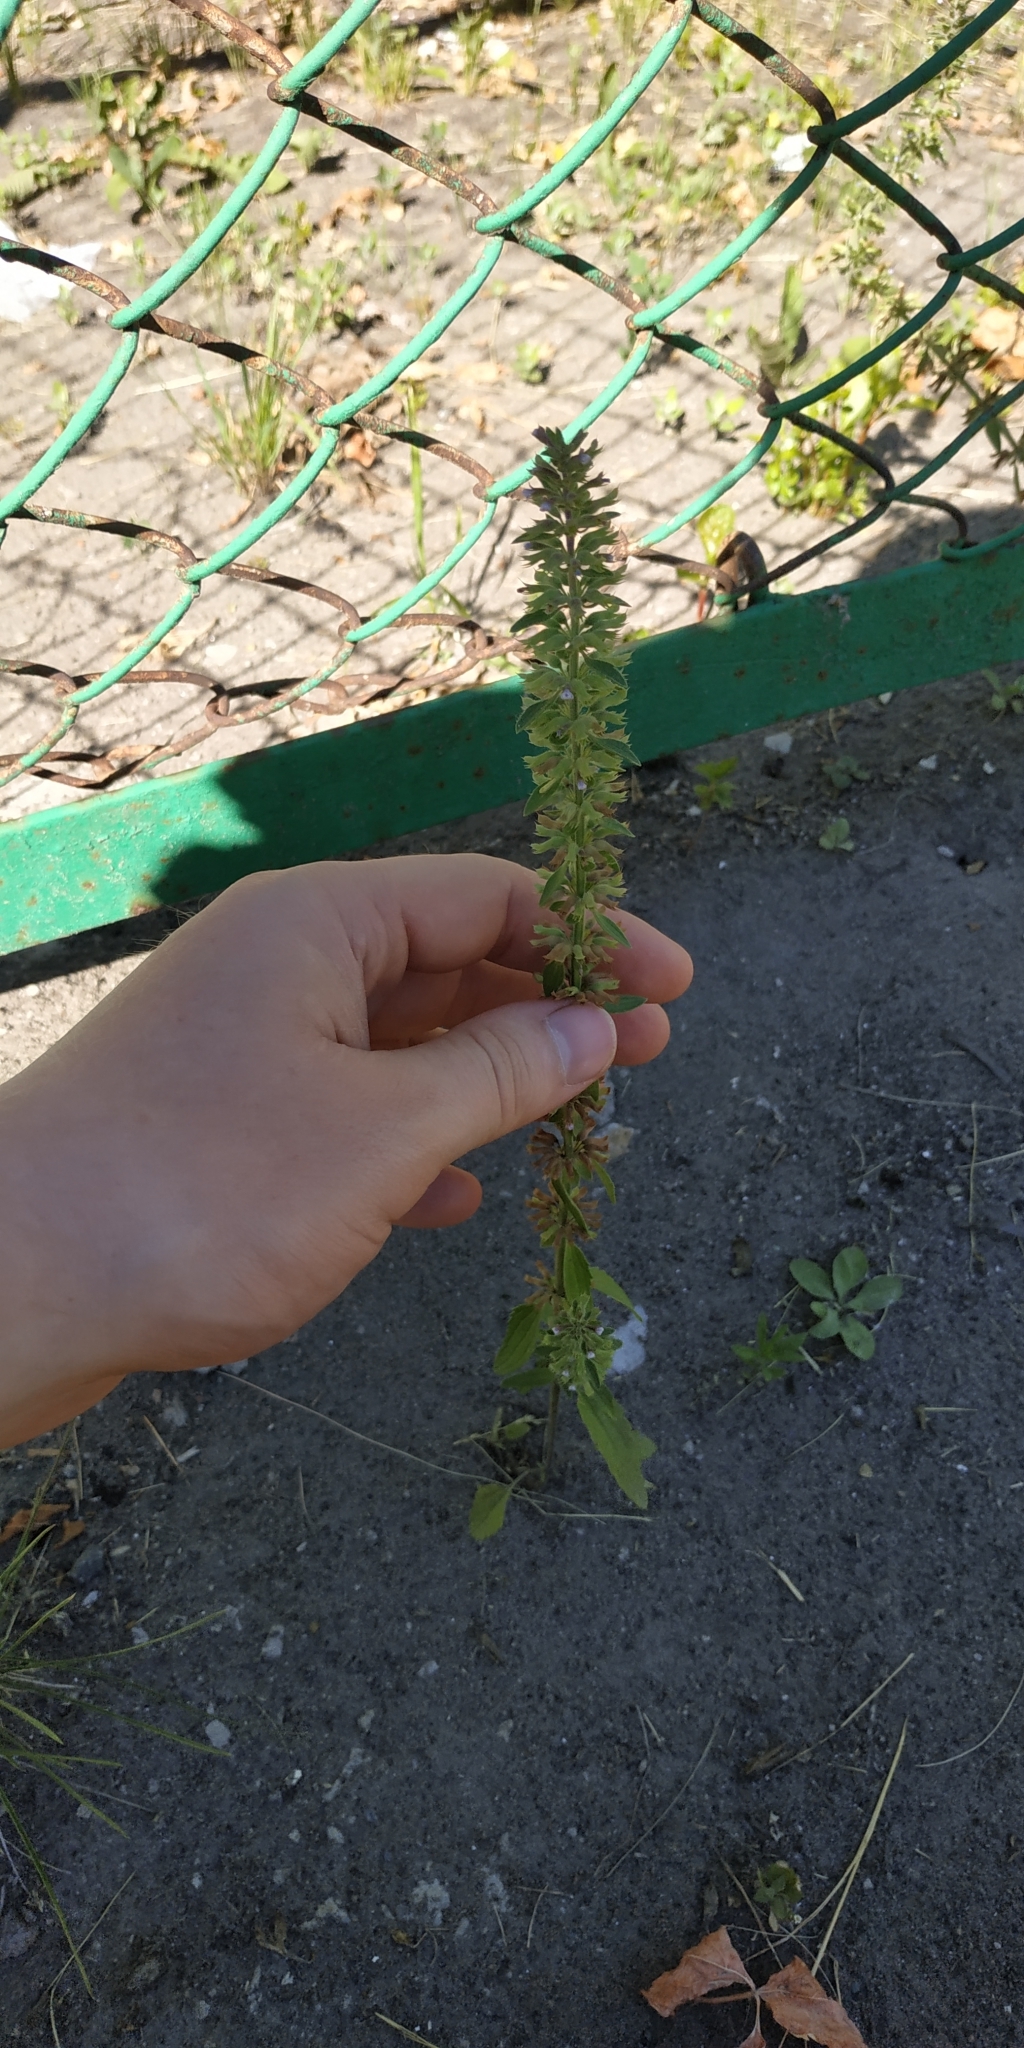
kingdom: Plantae
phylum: Tracheophyta
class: Magnoliopsida
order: Lamiales
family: Lamiaceae
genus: Dracocephalum
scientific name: Dracocephalum thymiflorum
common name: Thymeleaf dragonhead
